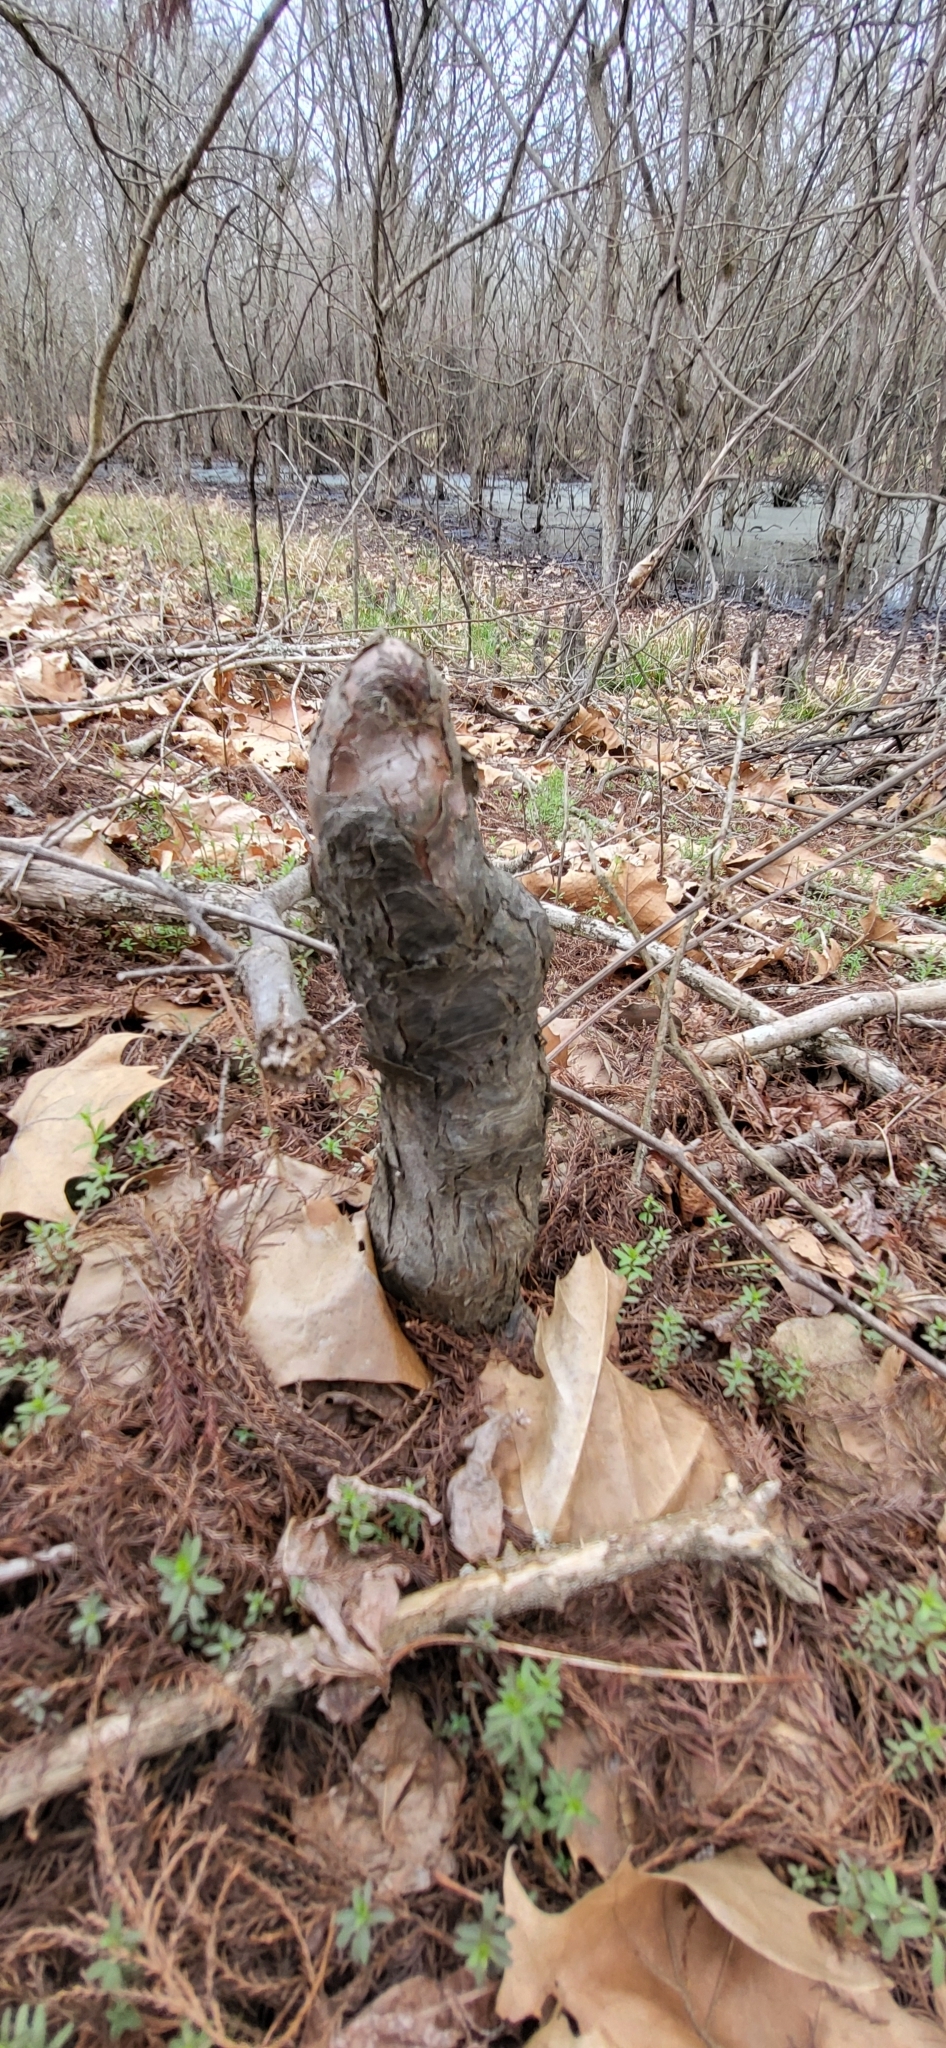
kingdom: Plantae
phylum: Tracheophyta
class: Pinopsida
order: Pinales
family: Cupressaceae
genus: Taxodium
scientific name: Taxodium distichum
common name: Bald cypress
